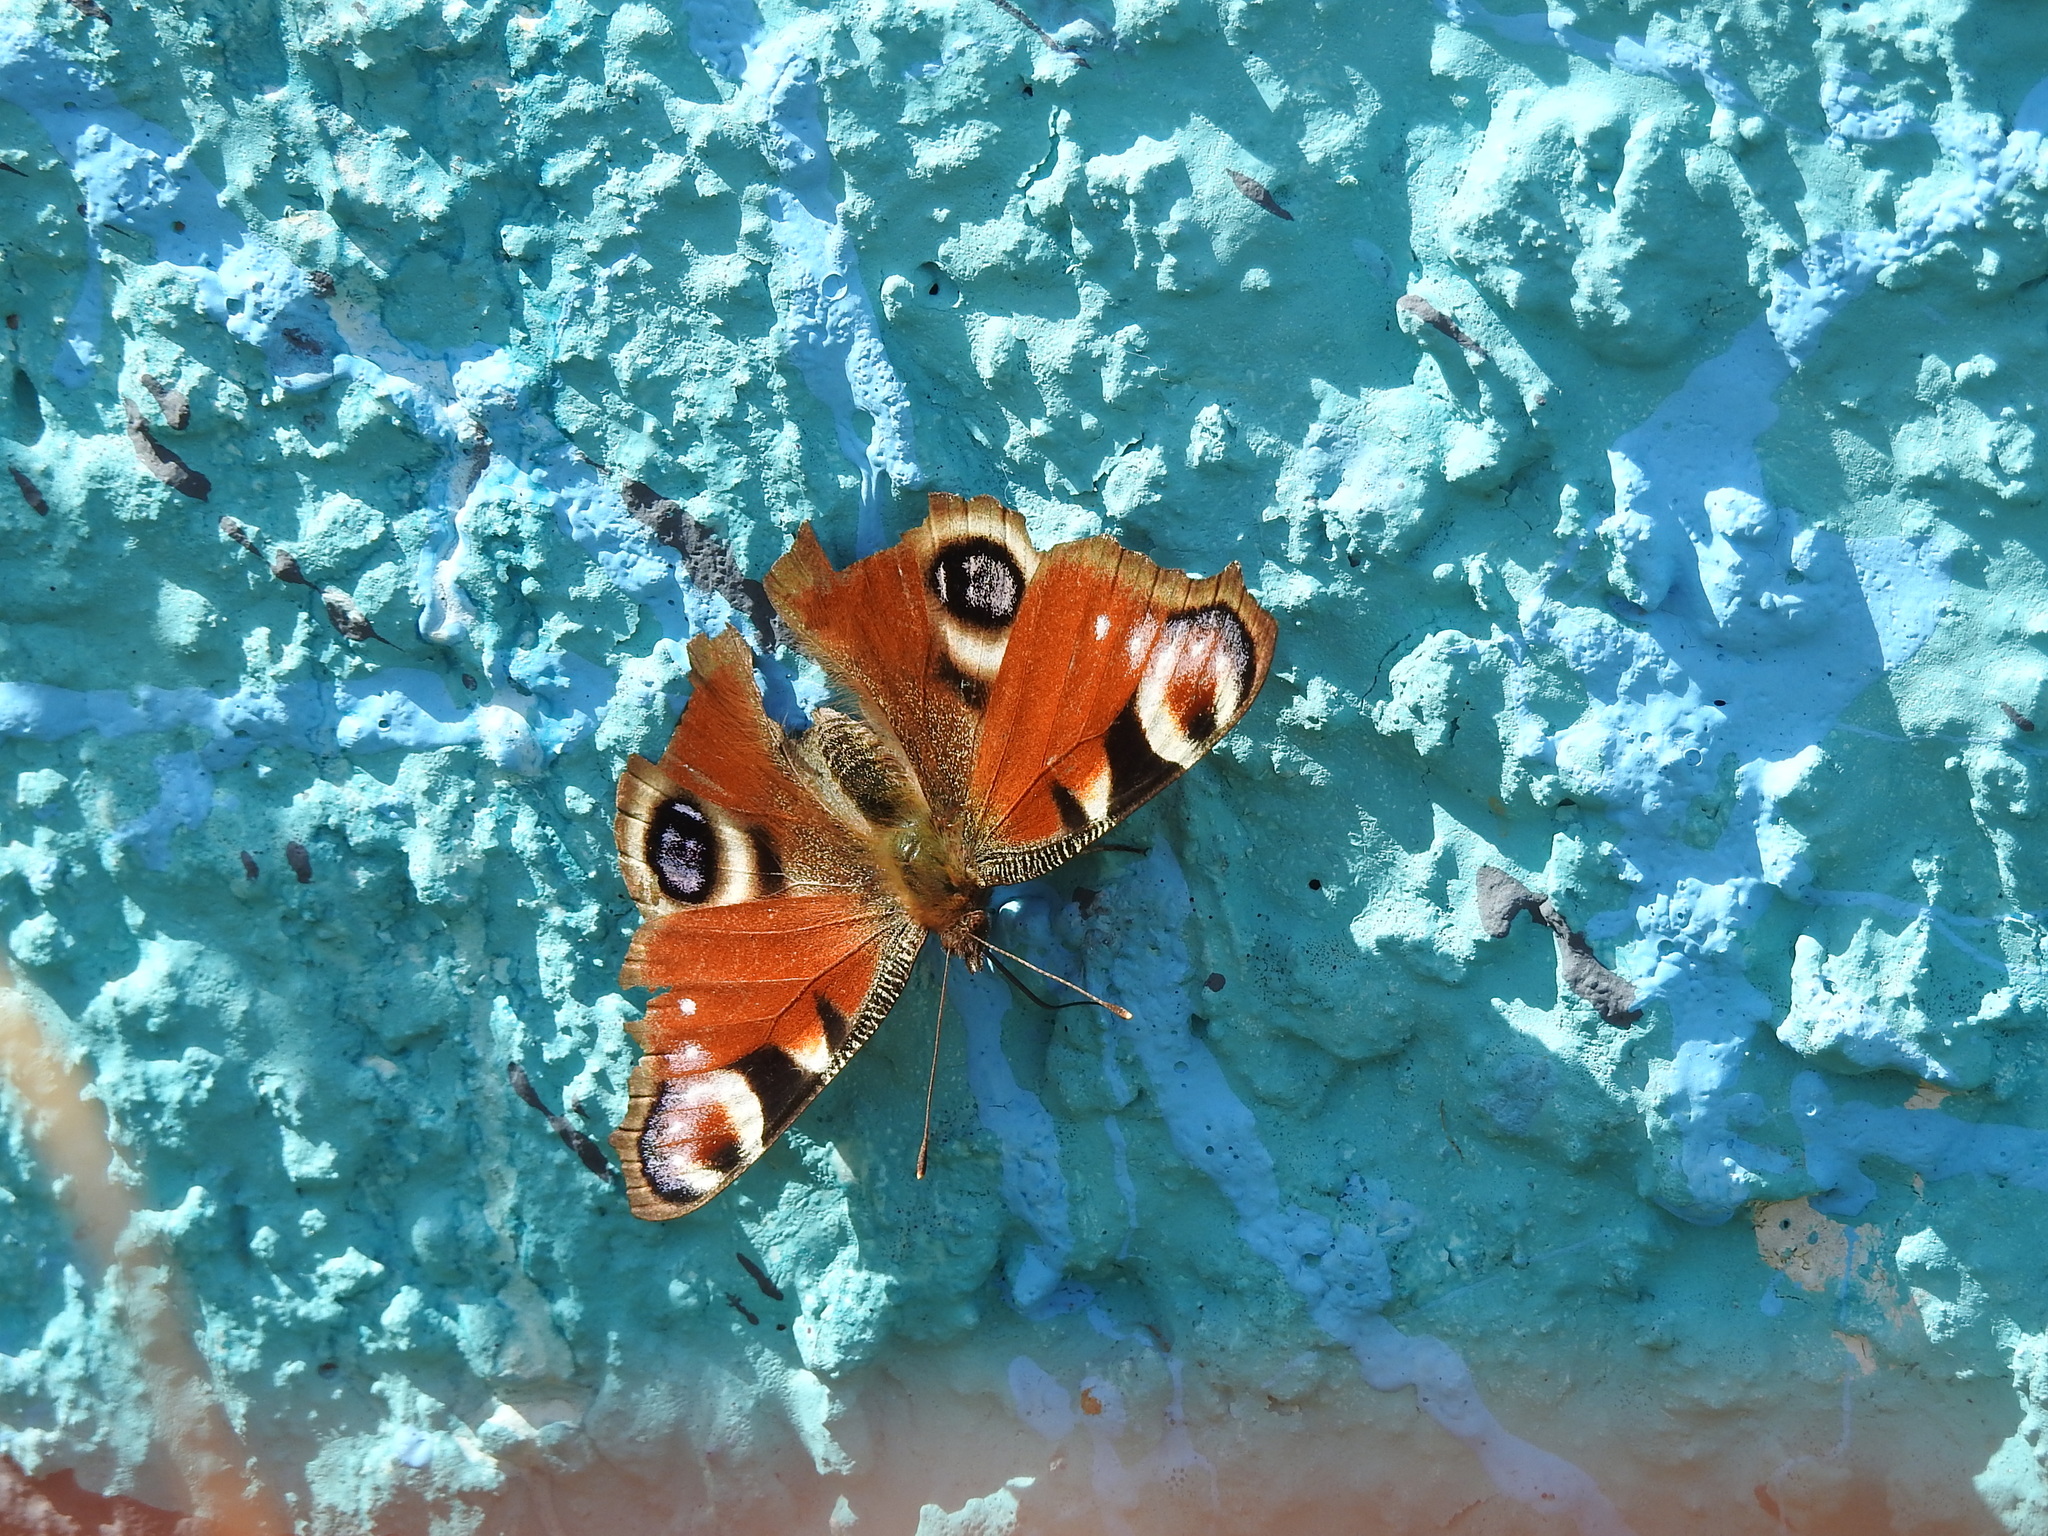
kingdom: Animalia
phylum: Arthropoda
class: Insecta
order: Lepidoptera
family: Nymphalidae
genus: Aglais
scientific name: Aglais io
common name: Peacock
